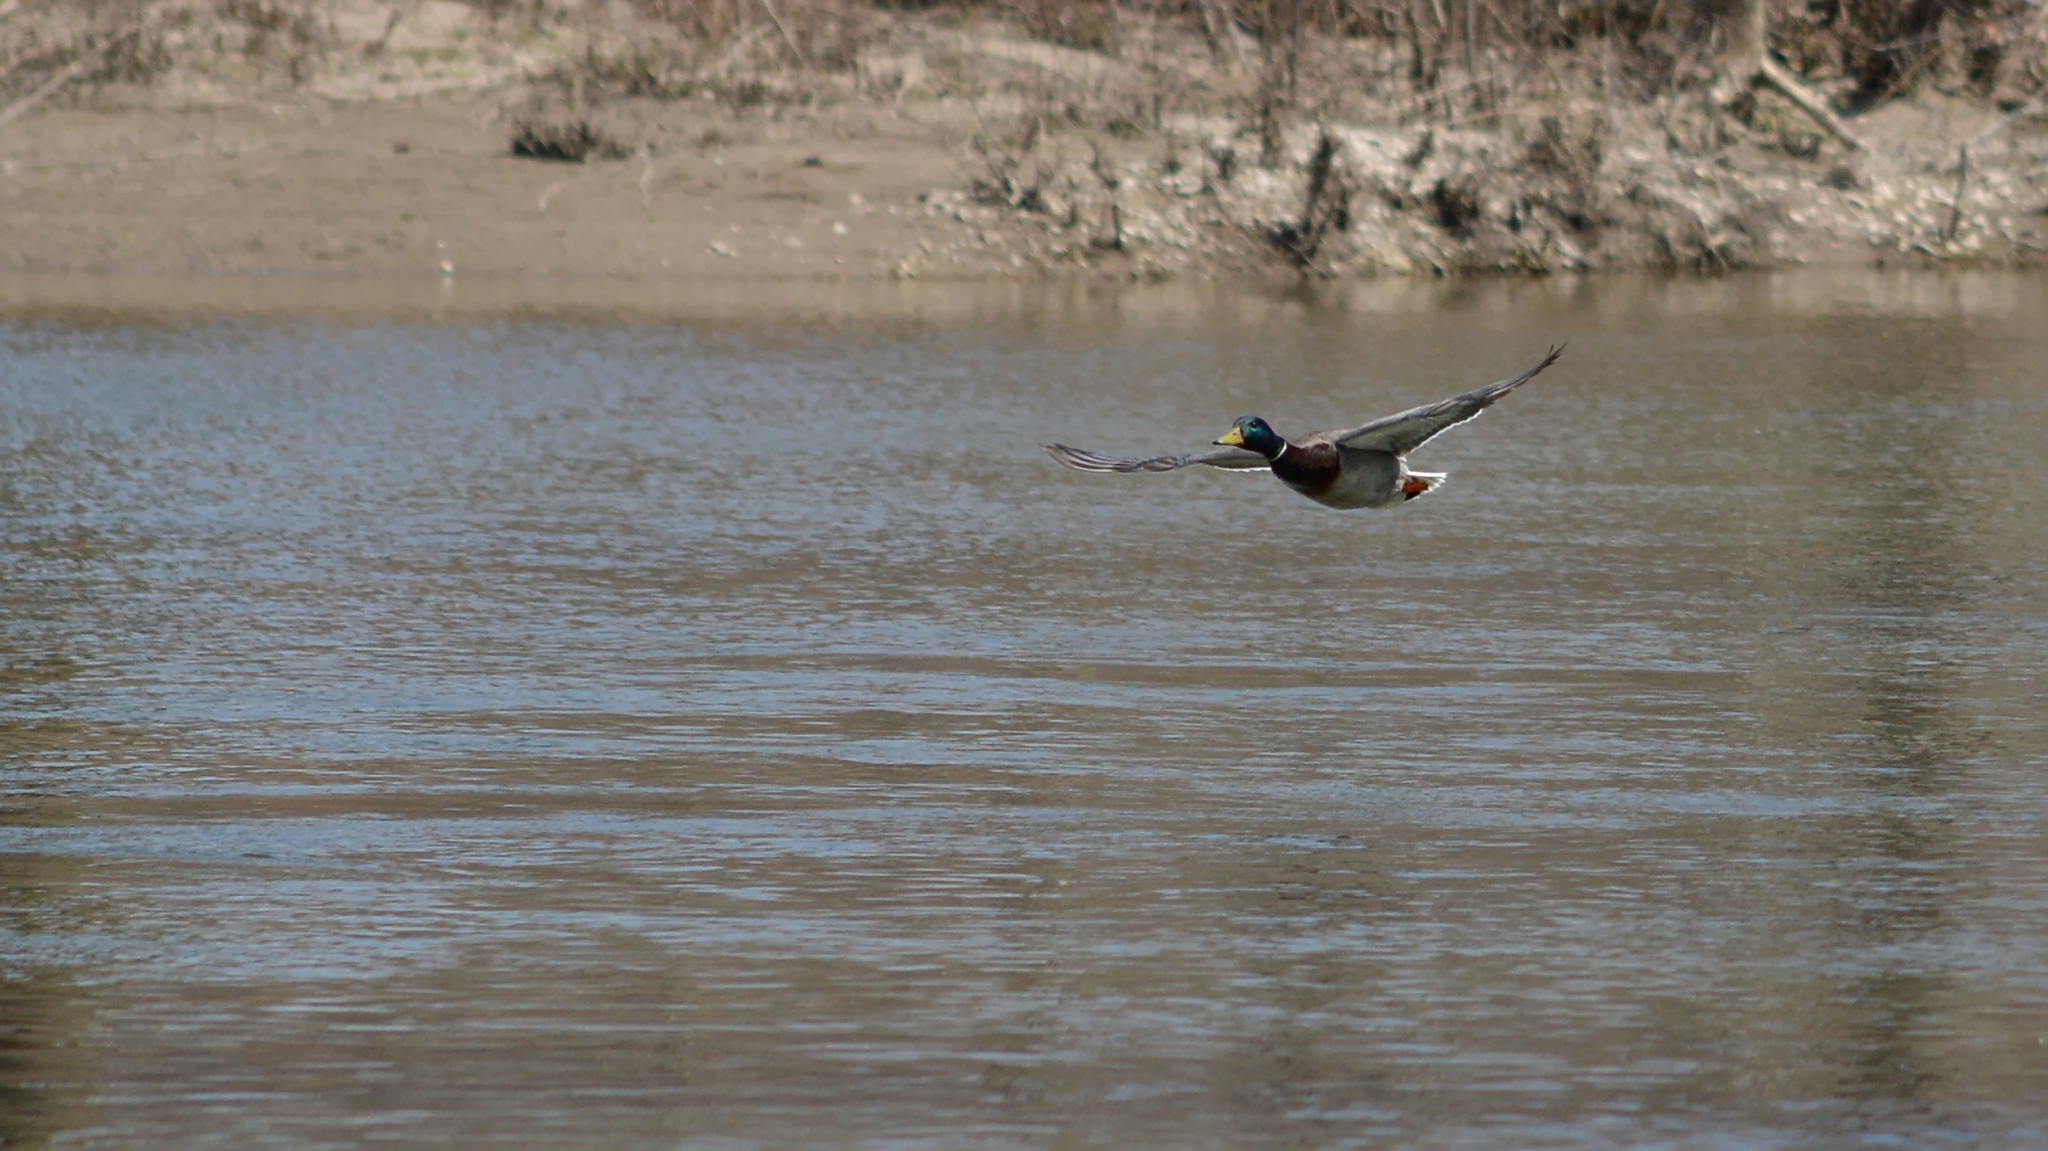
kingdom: Animalia
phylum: Chordata
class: Aves
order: Anseriformes
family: Anatidae
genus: Anas
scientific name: Anas platyrhynchos
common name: Mallard
